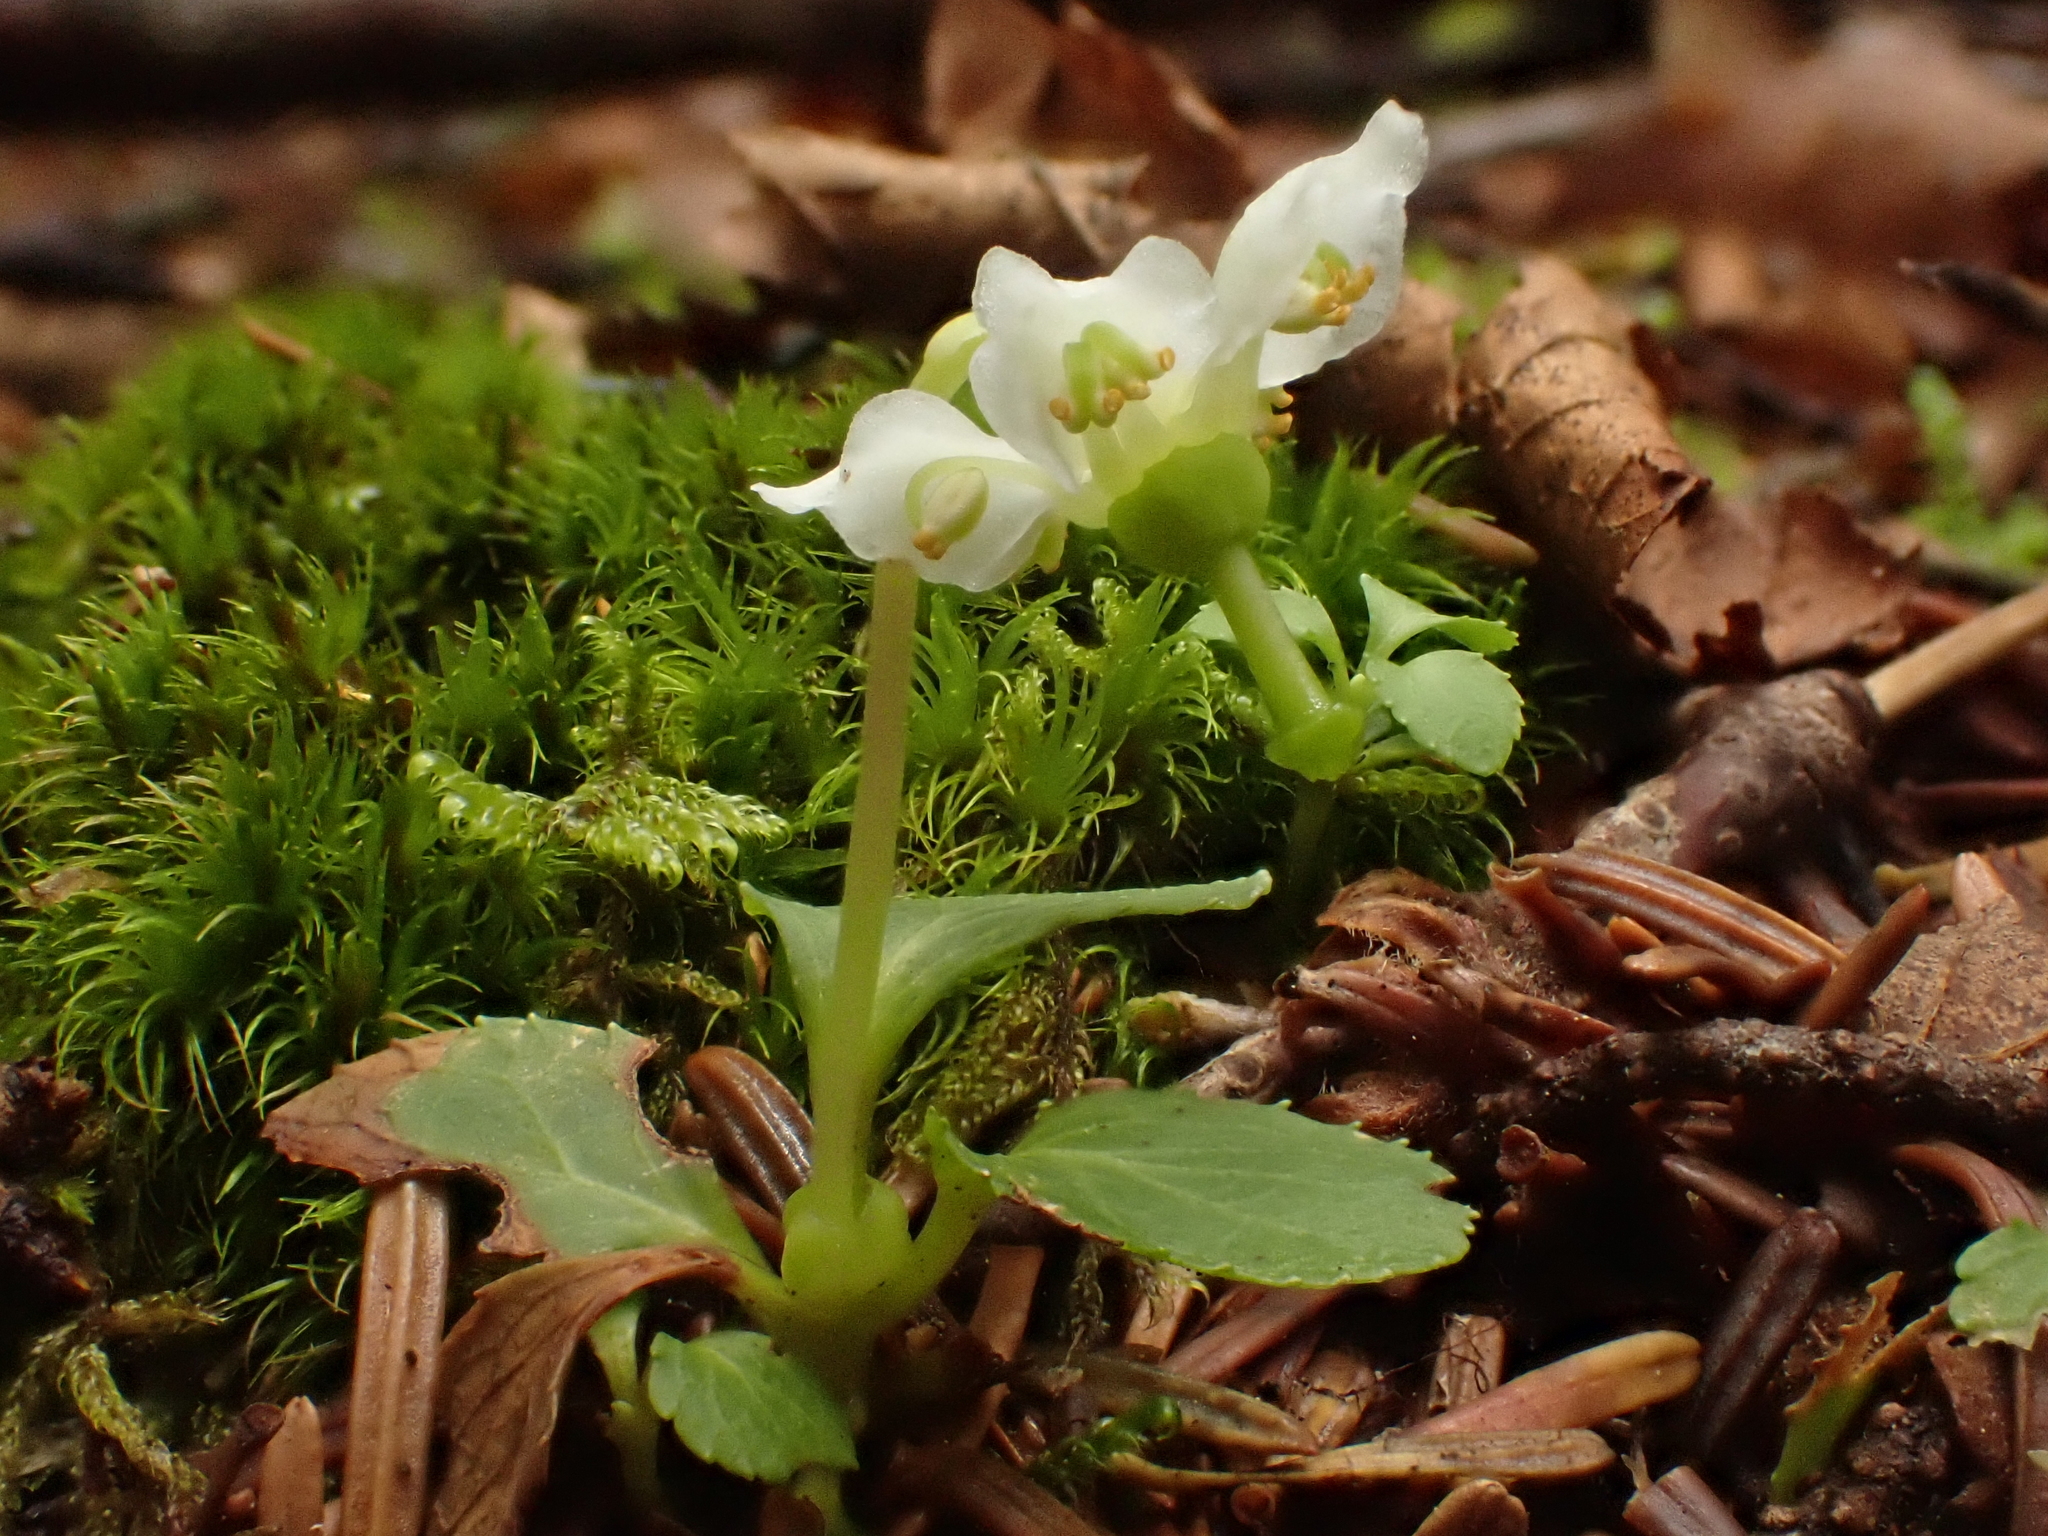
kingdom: Plantae
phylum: Tracheophyta
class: Magnoliopsida
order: Ericales
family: Ericaceae
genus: Moneses
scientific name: Moneses uniflora
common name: One-flowered wintergreen
